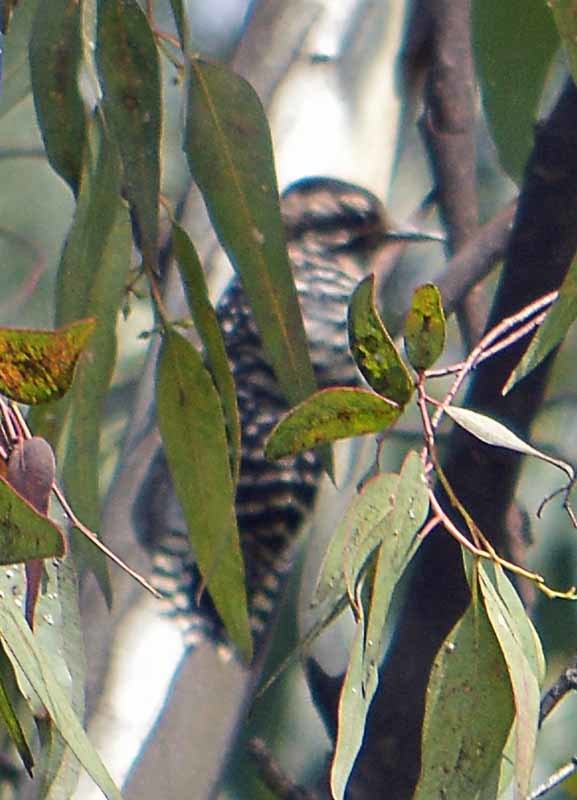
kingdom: Animalia
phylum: Chordata
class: Aves
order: Piciformes
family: Picidae
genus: Dryobates
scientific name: Dryobates scalaris
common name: Ladder-backed woodpecker
